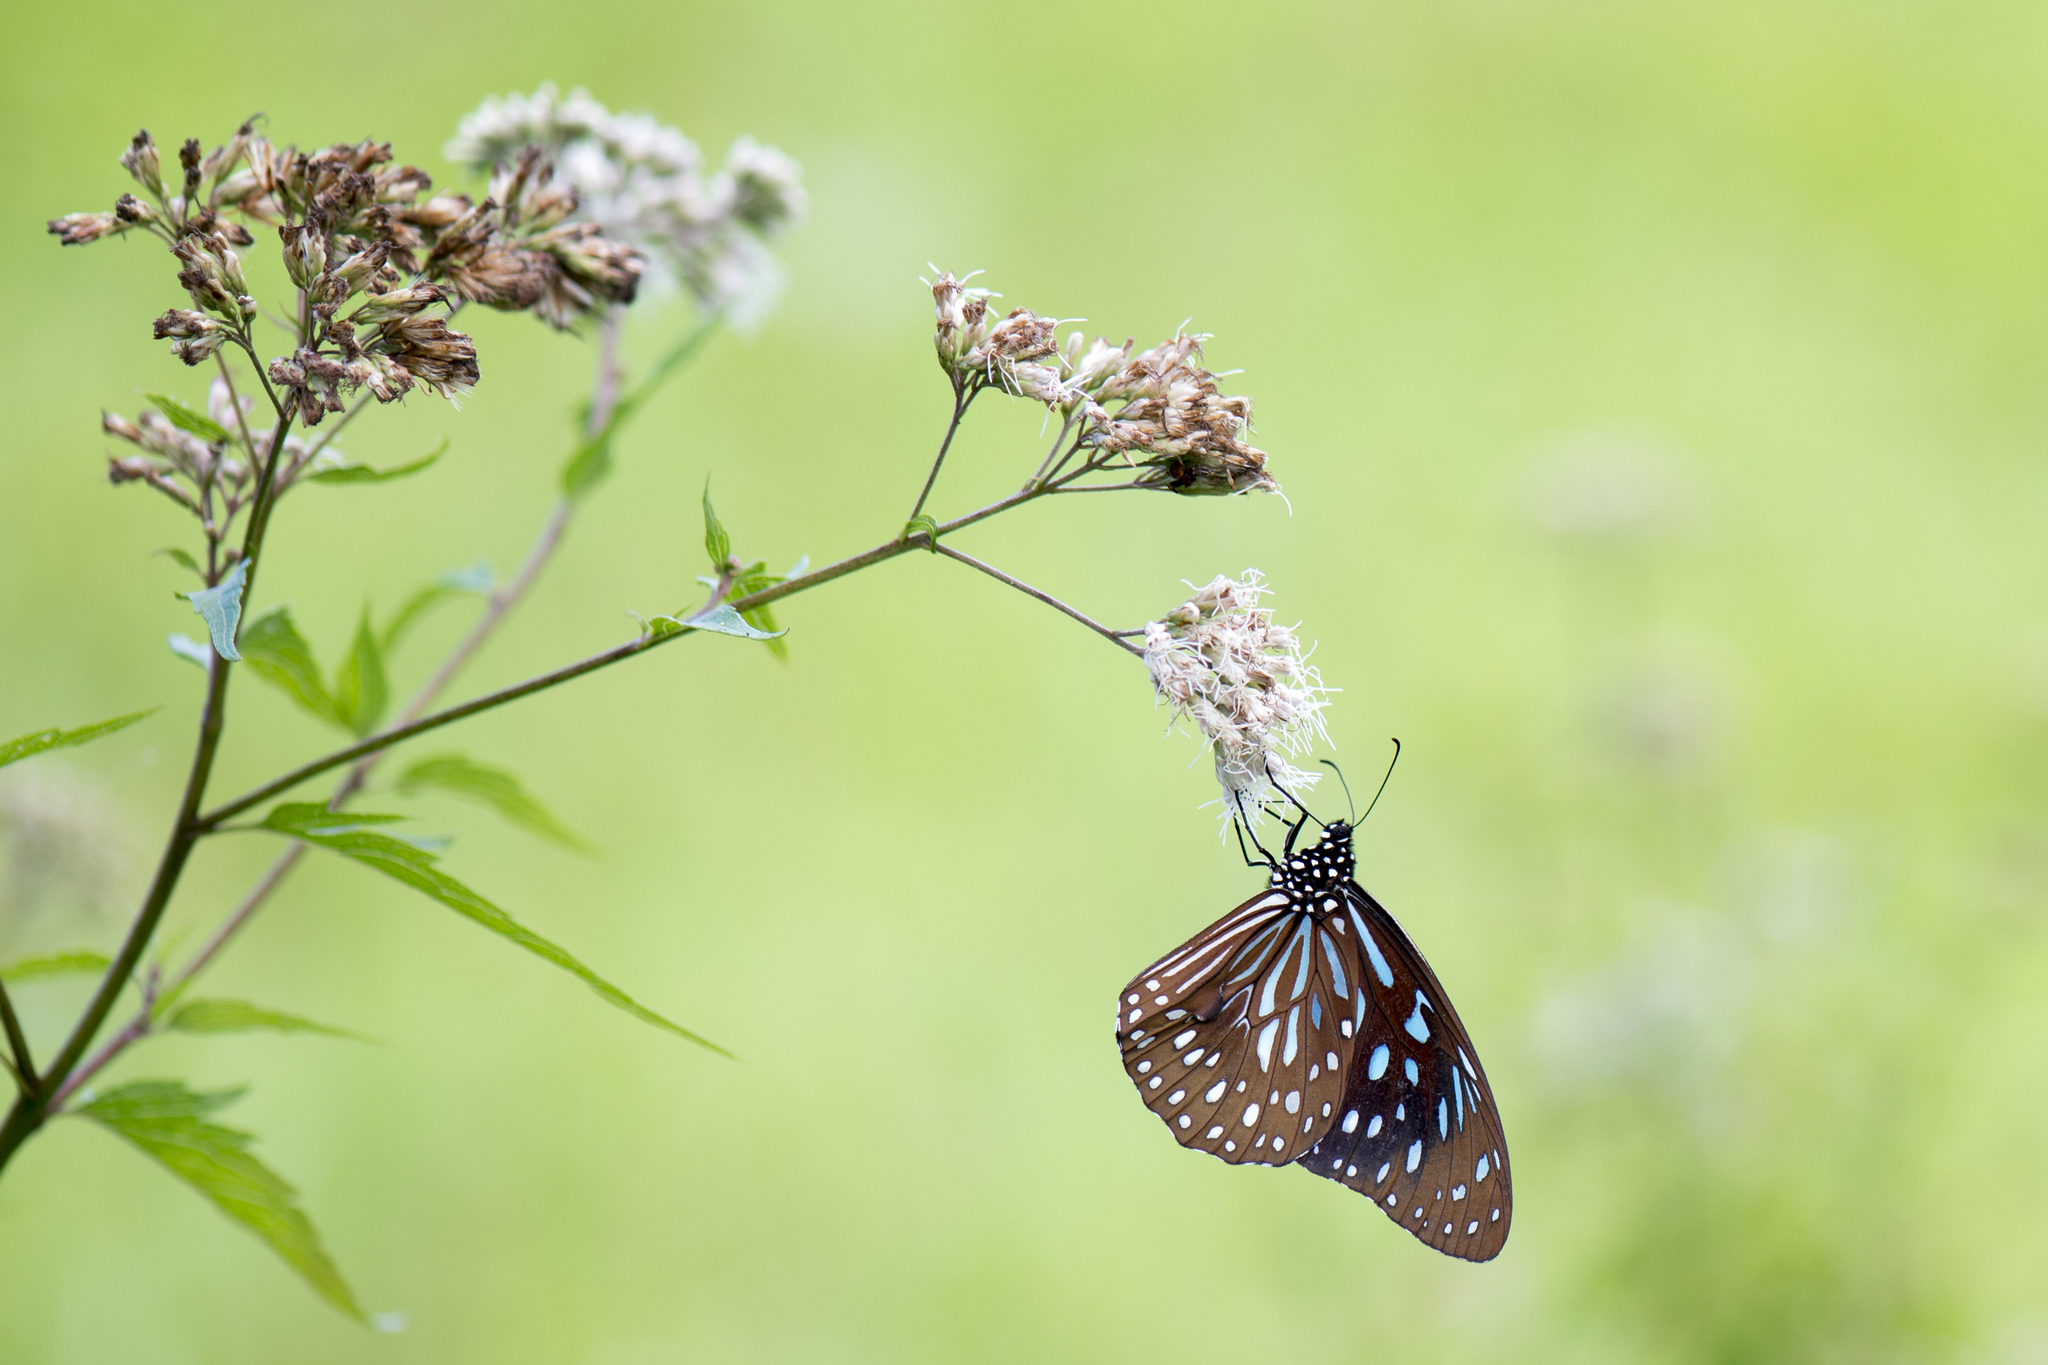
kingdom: Animalia
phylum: Arthropoda
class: Insecta
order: Lepidoptera
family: Nymphalidae
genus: Tirumala
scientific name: Tirumala septentrionis
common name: Dark blue tiger butterfly
